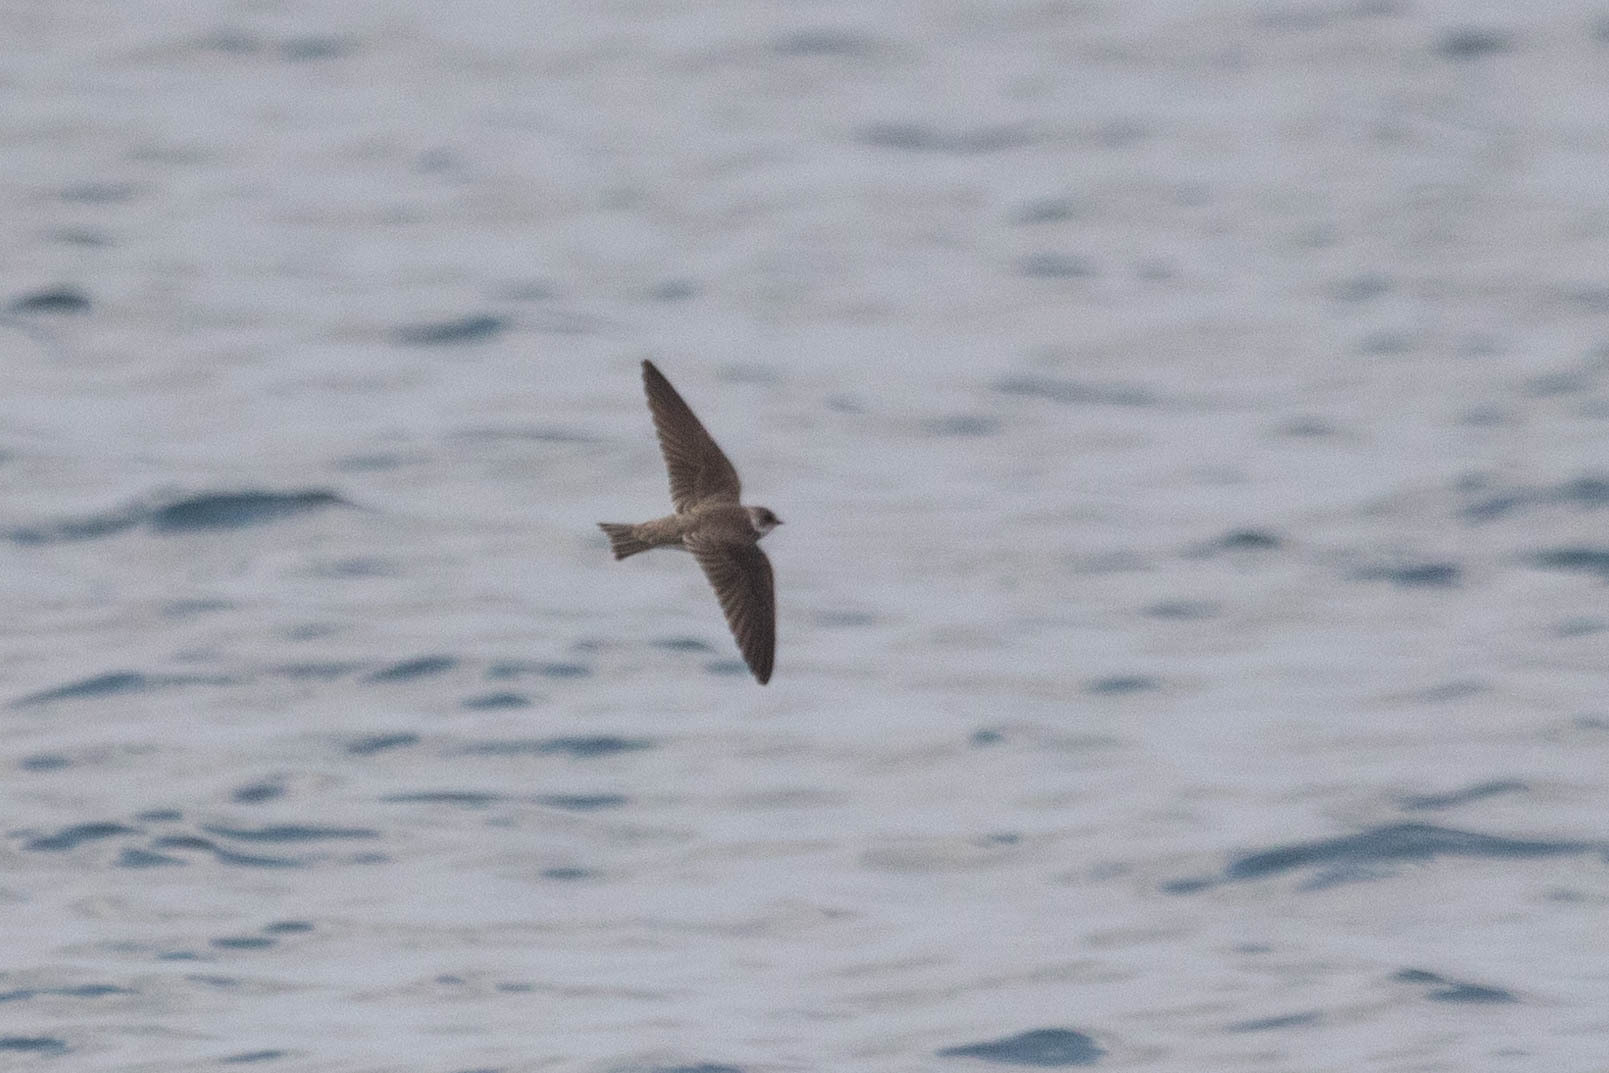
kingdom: Animalia
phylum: Chordata
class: Aves
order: Passeriformes
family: Hirundinidae
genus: Riparia
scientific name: Riparia riparia
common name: Sand martin
